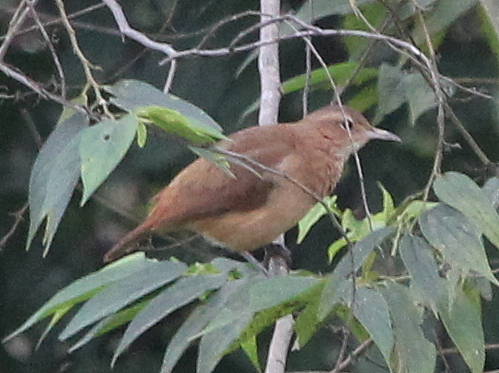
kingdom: Animalia
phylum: Chordata
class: Aves
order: Passeriformes
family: Furnariidae
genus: Furnarius
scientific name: Furnarius rufus
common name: Rufous hornero
